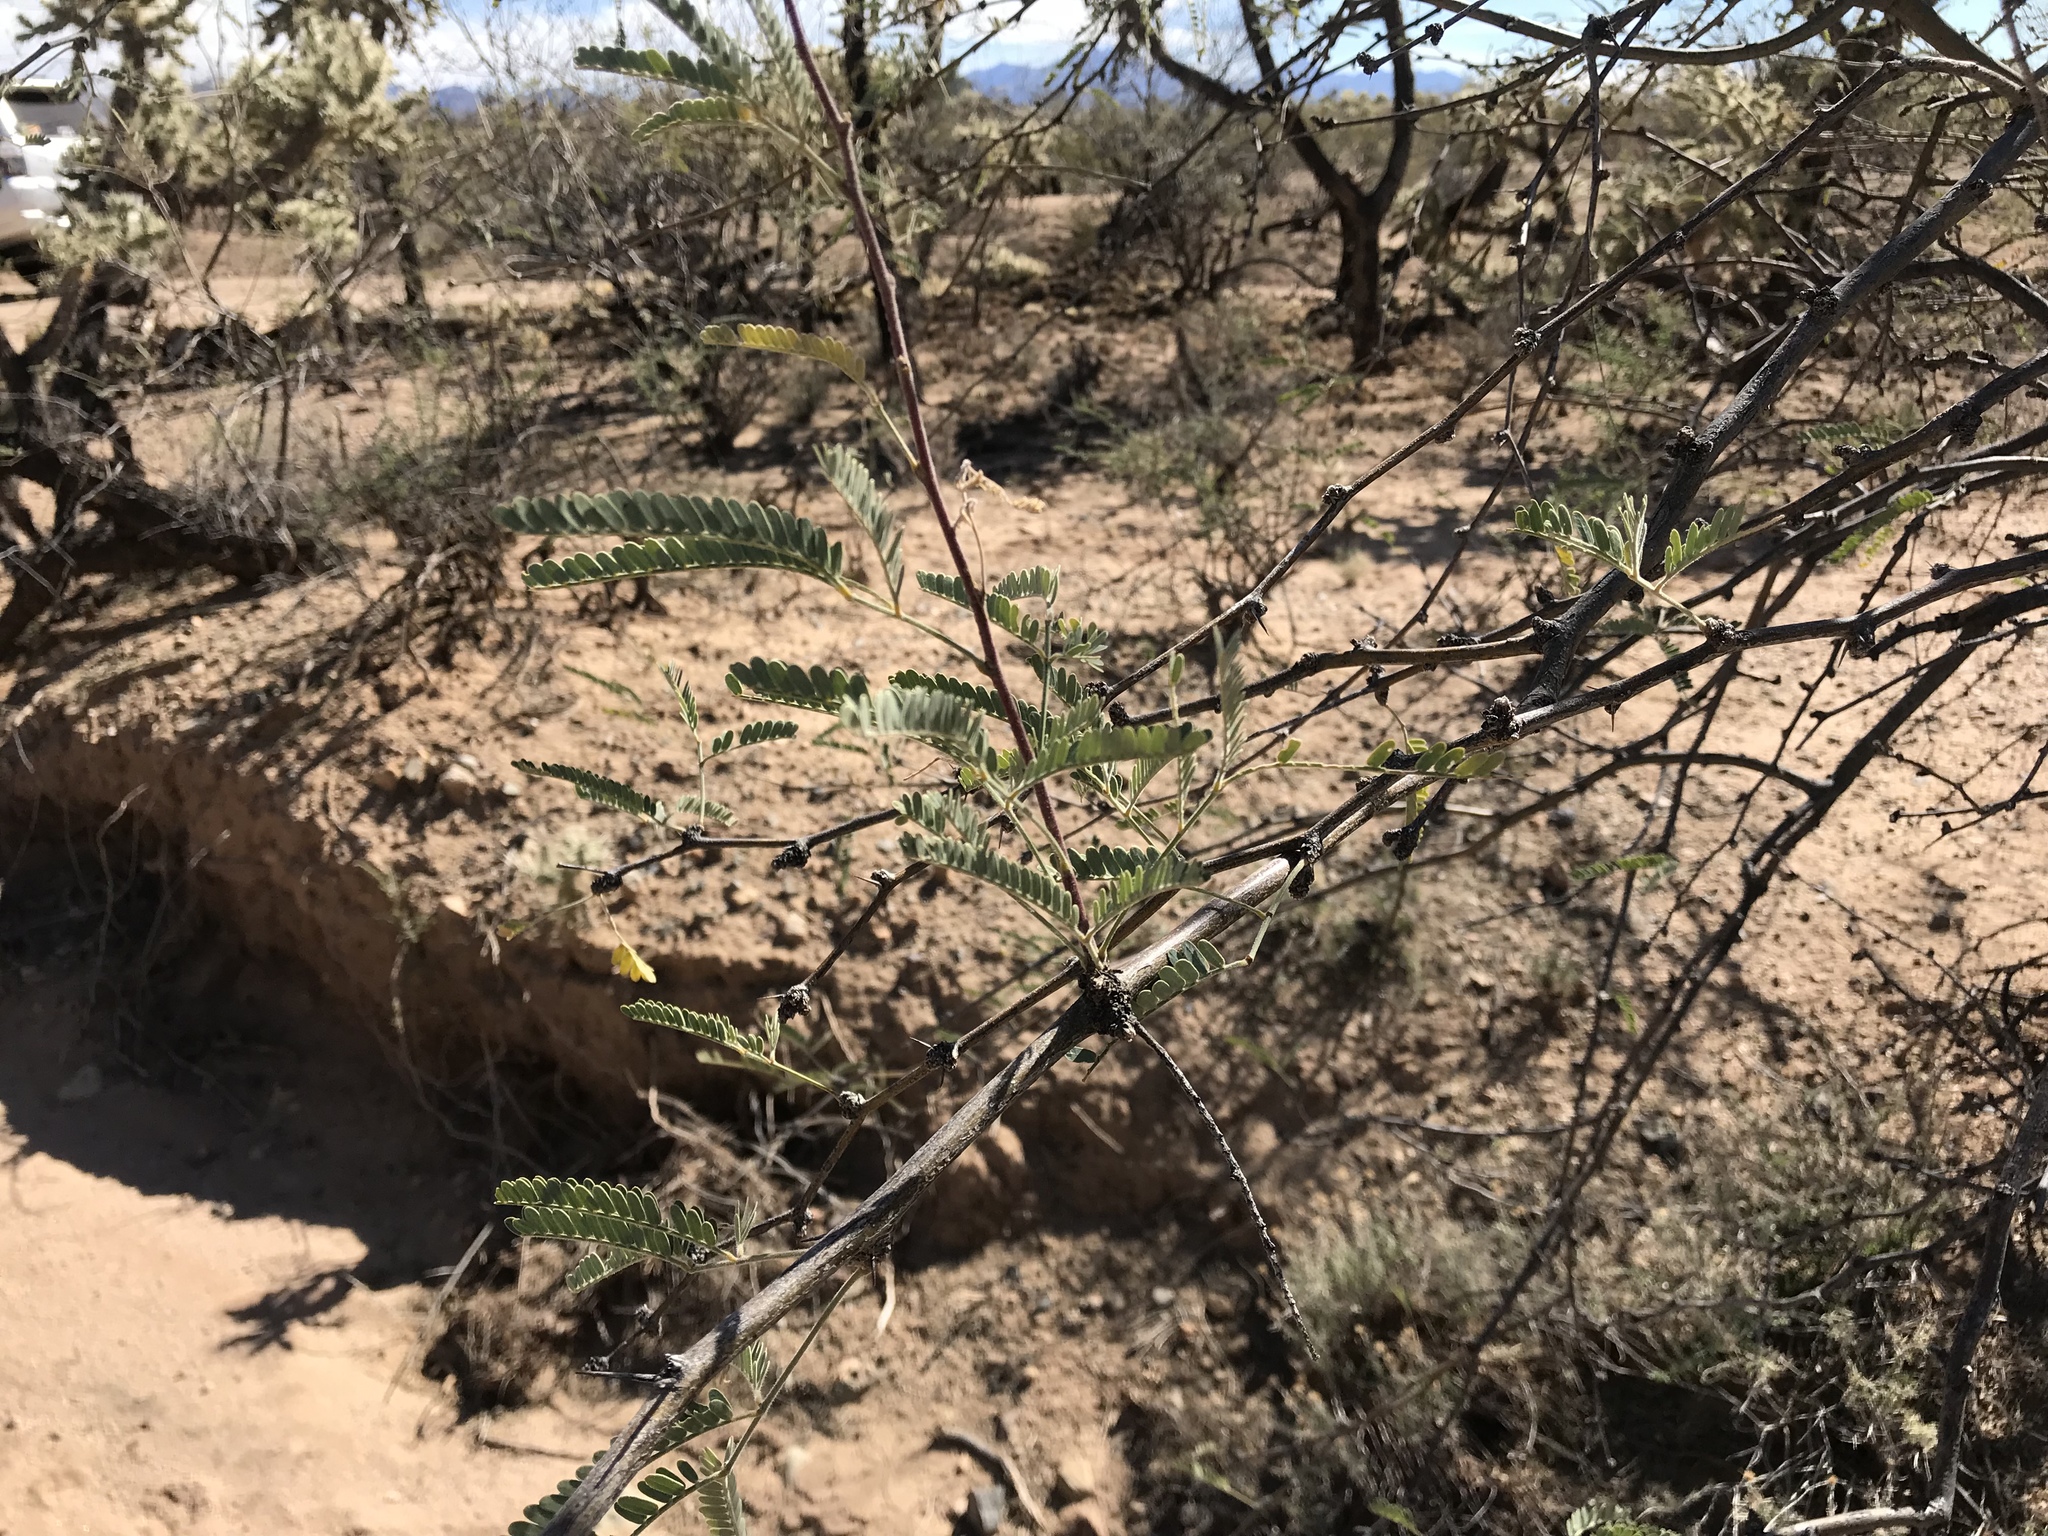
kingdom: Plantae
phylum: Tracheophyta
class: Magnoliopsida
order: Fabales
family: Fabaceae
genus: Prosopis
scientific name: Prosopis velutina
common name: Velvet mesquite
